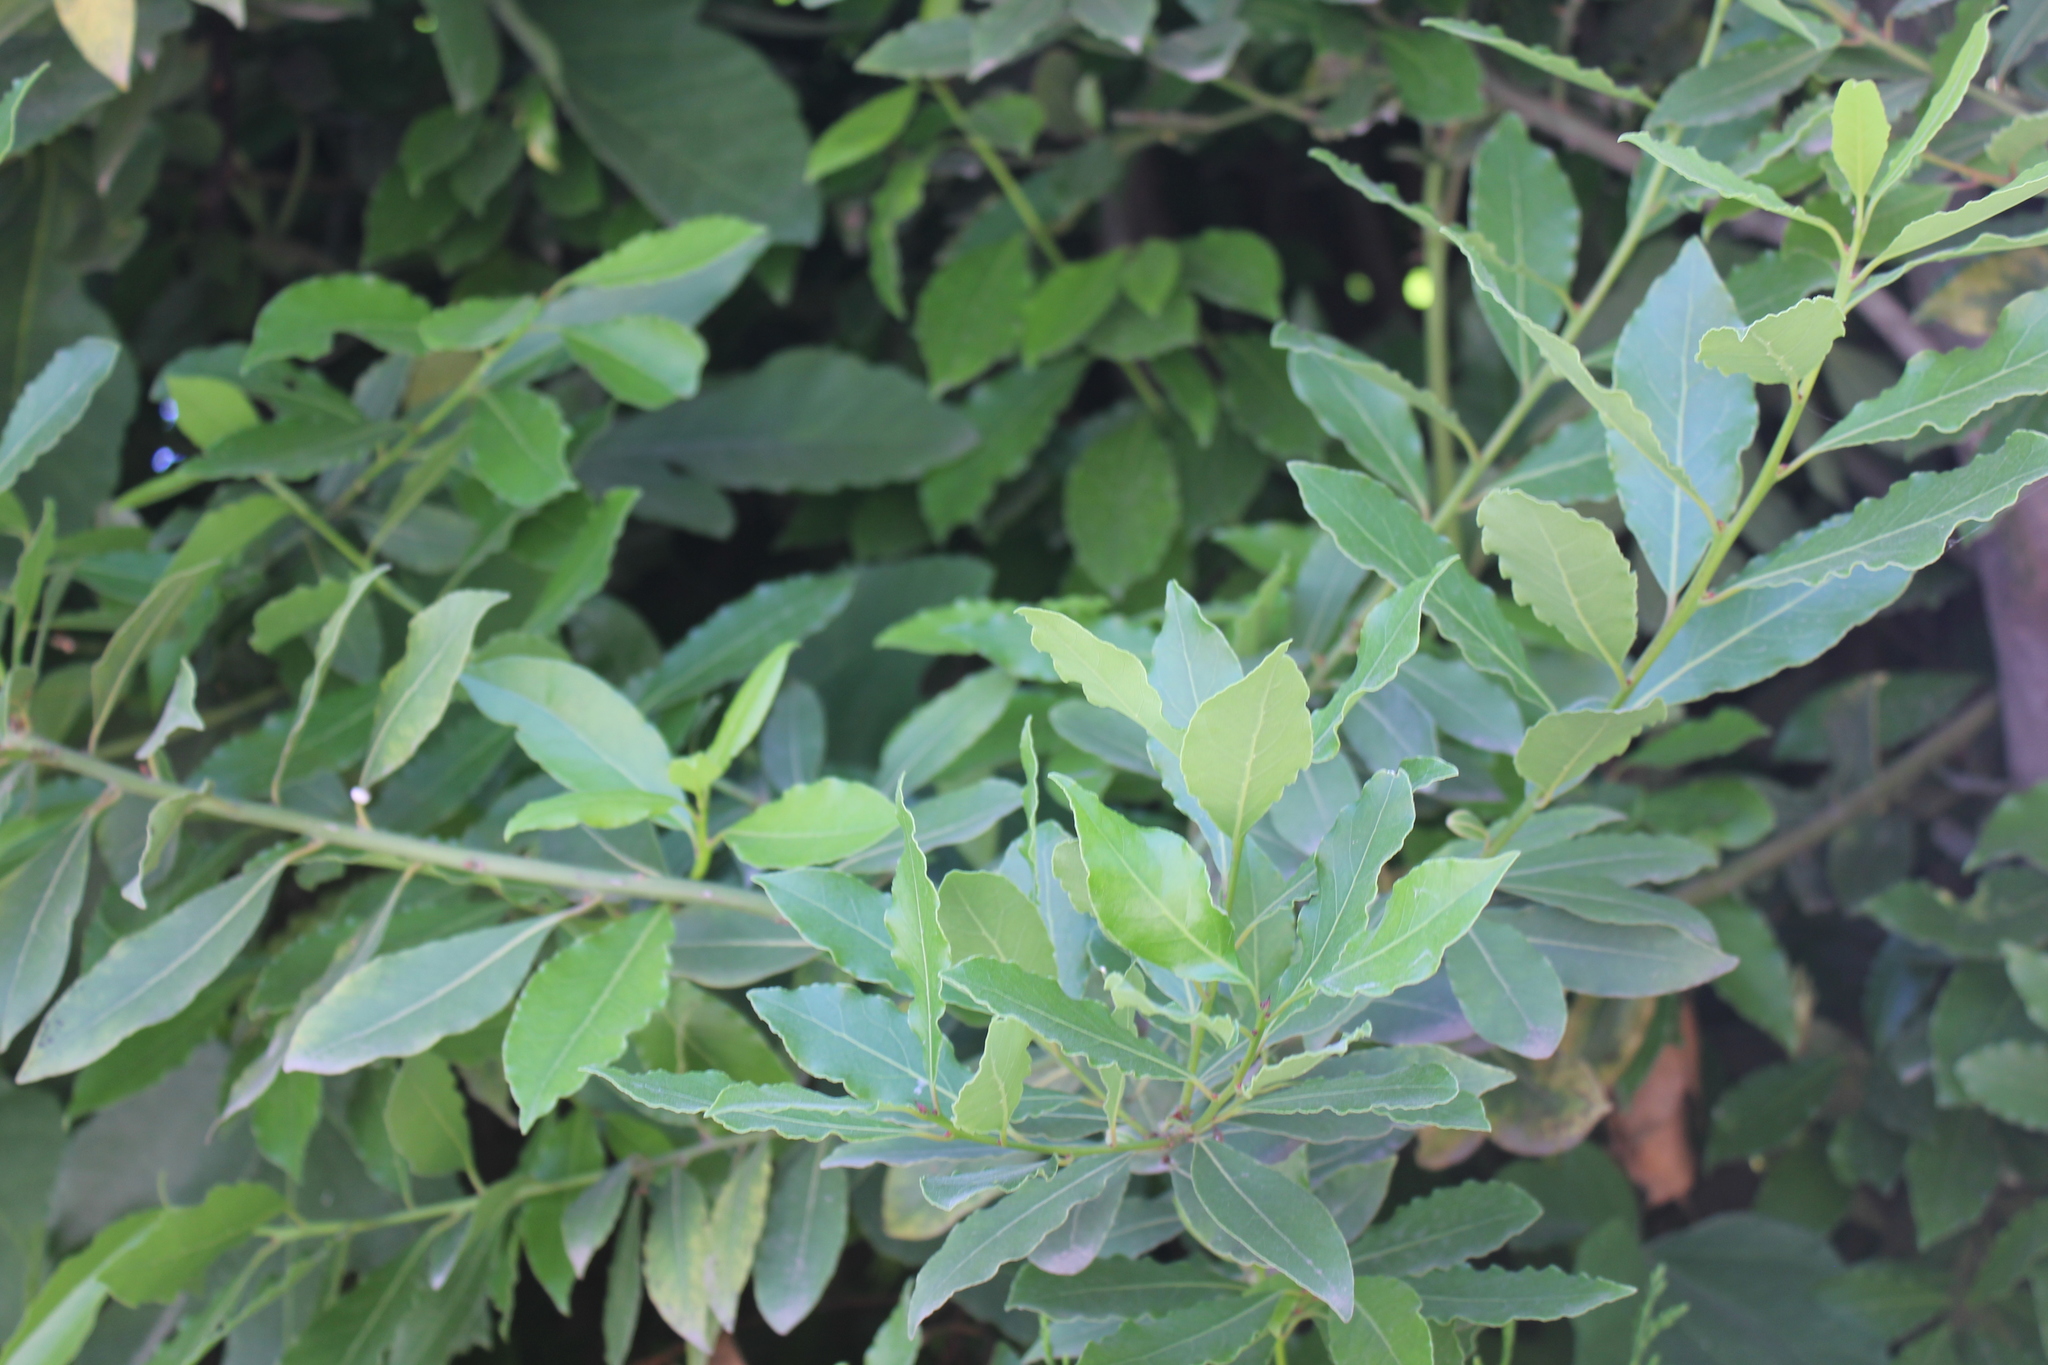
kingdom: Plantae
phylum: Tracheophyta
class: Magnoliopsida
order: Laurales
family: Lauraceae
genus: Laurus
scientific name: Laurus nobilis
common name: Bay
